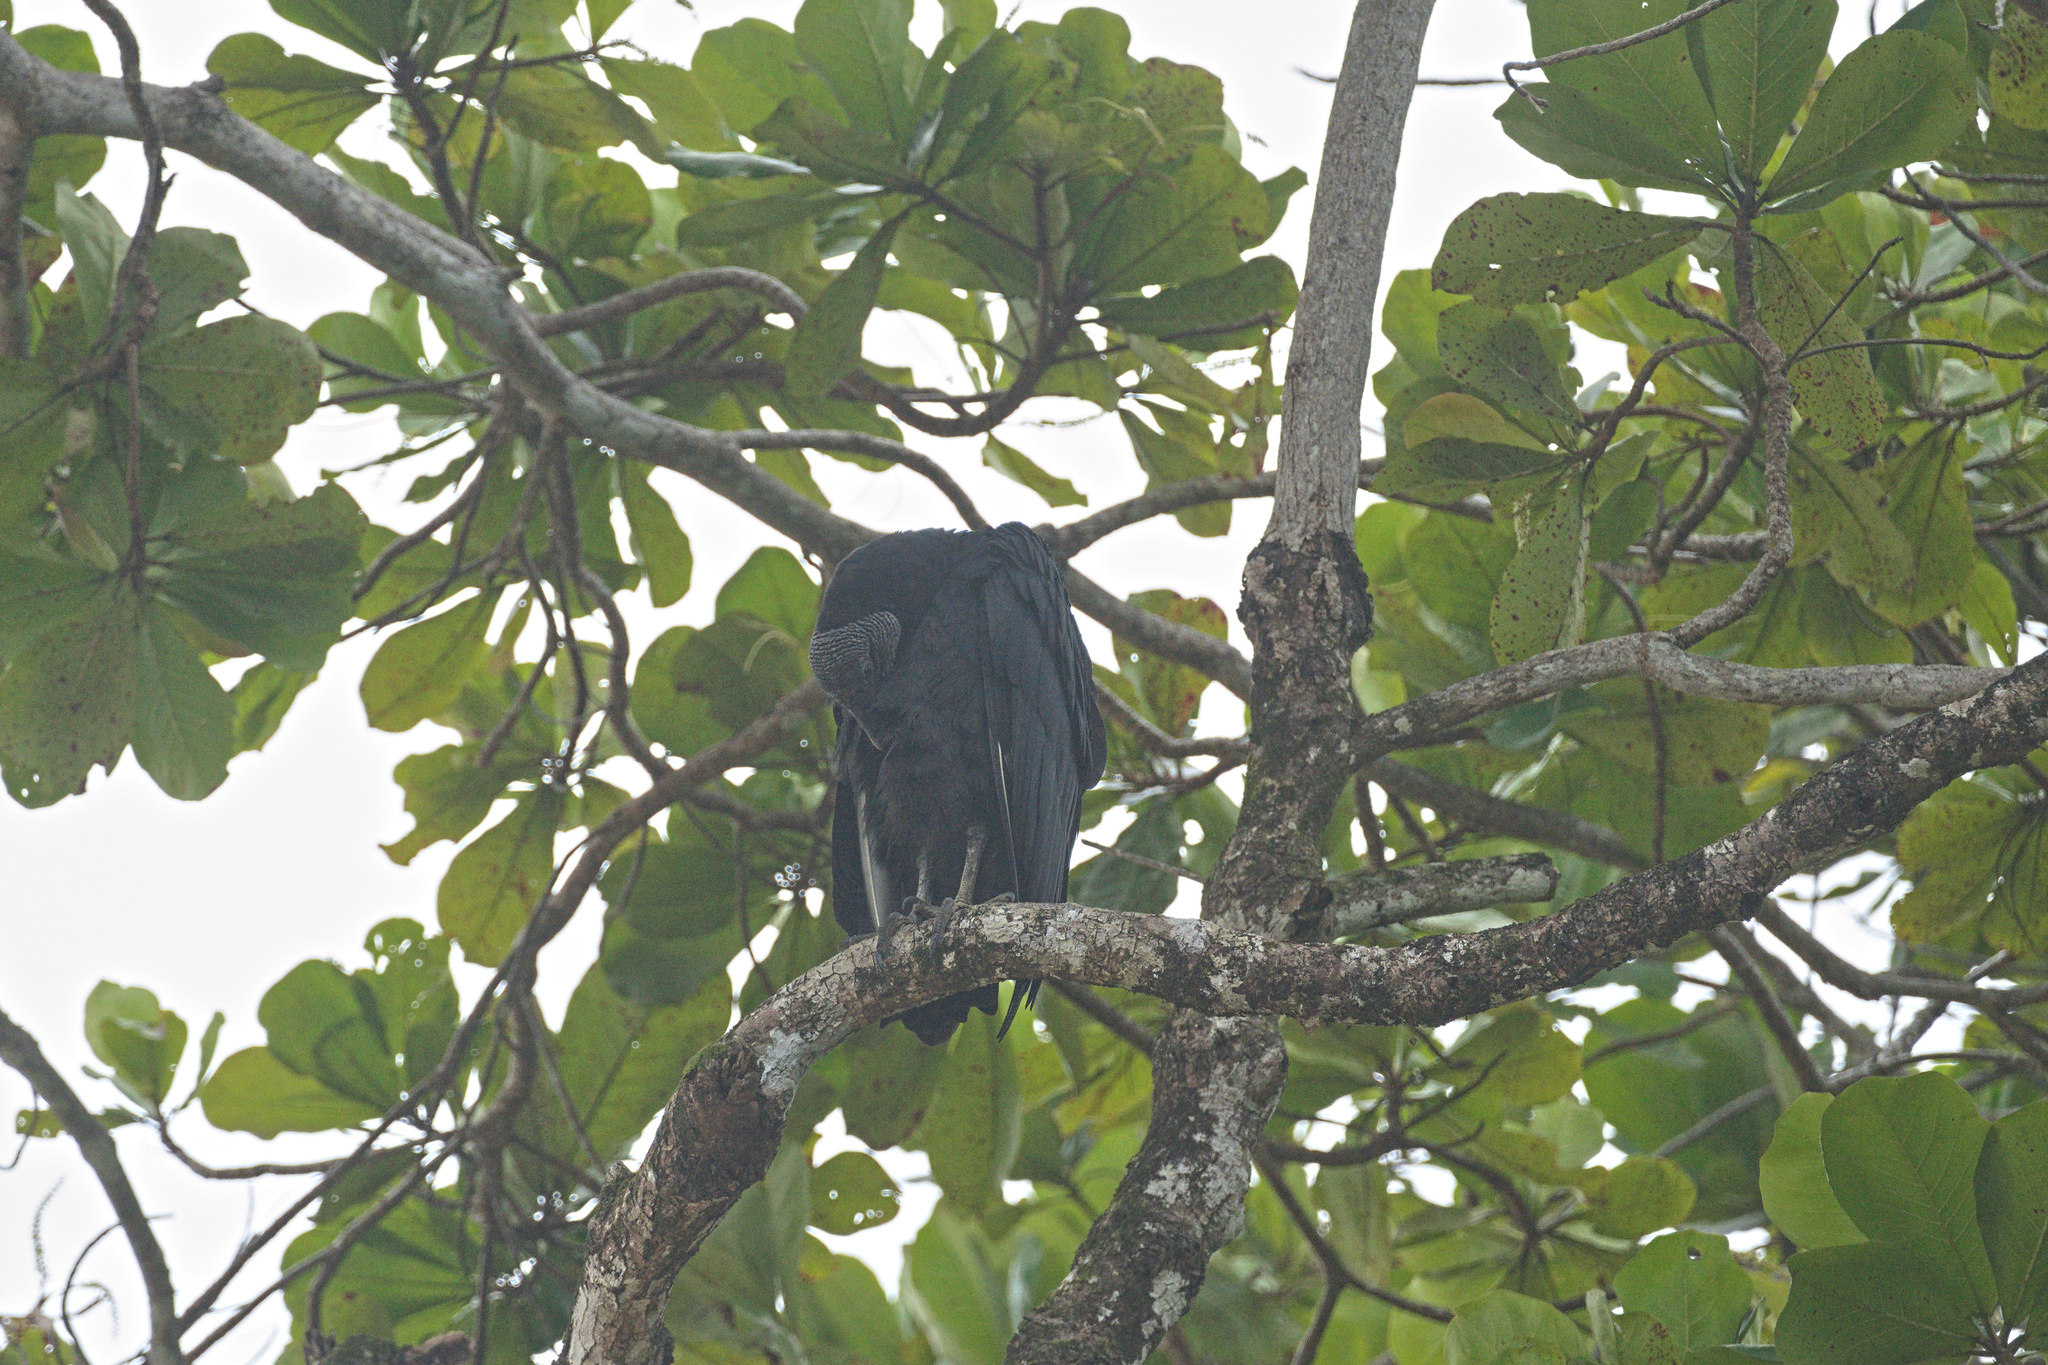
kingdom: Animalia
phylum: Chordata
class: Aves
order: Accipitriformes
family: Cathartidae
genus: Coragyps
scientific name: Coragyps atratus
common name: Black vulture
